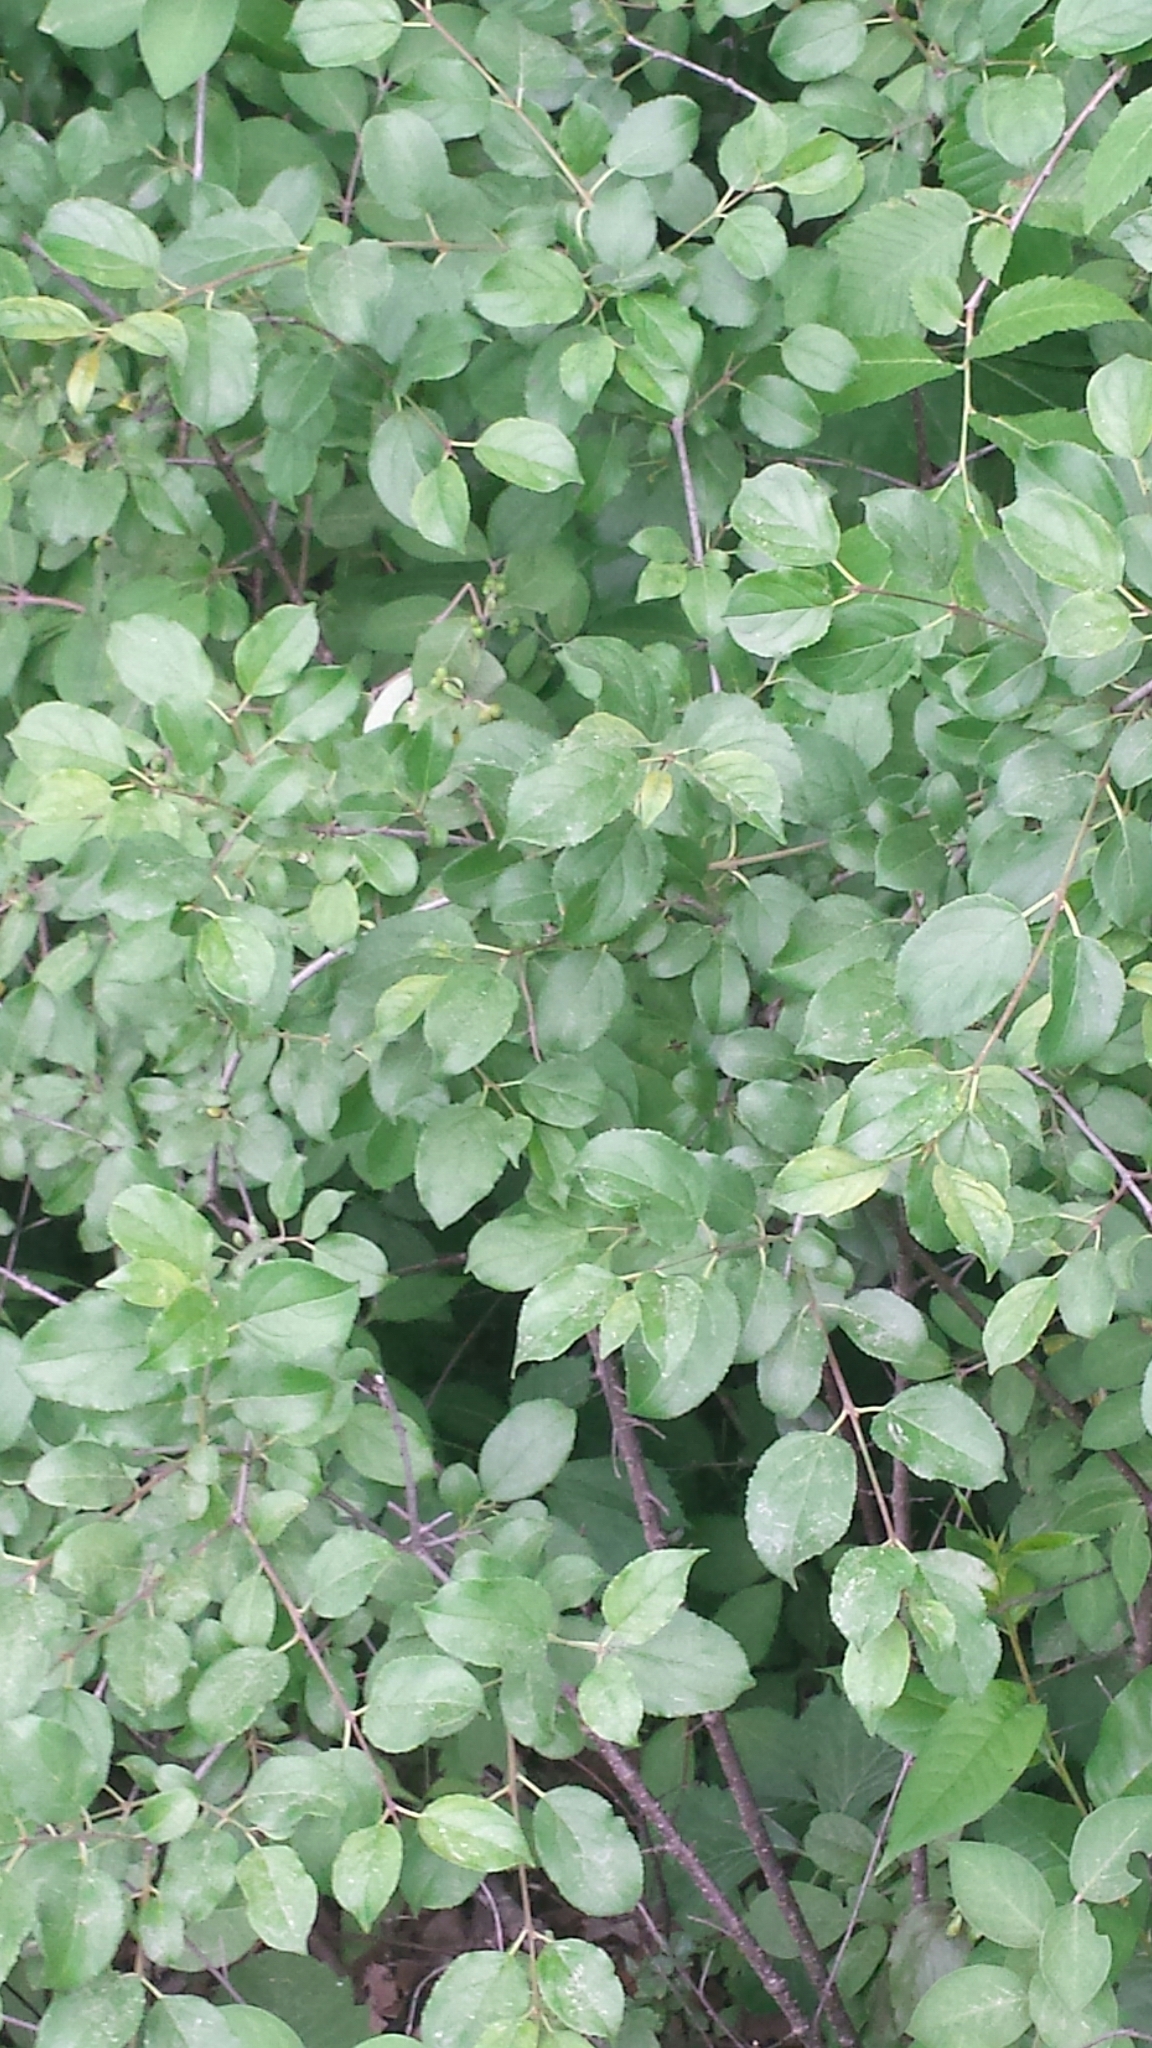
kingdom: Plantae
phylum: Tracheophyta
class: Magnoliopsida
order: Rosales
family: Rhamnaceae
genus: Rhamnus
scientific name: Rhamnus cathartica
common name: Common buckthorn
